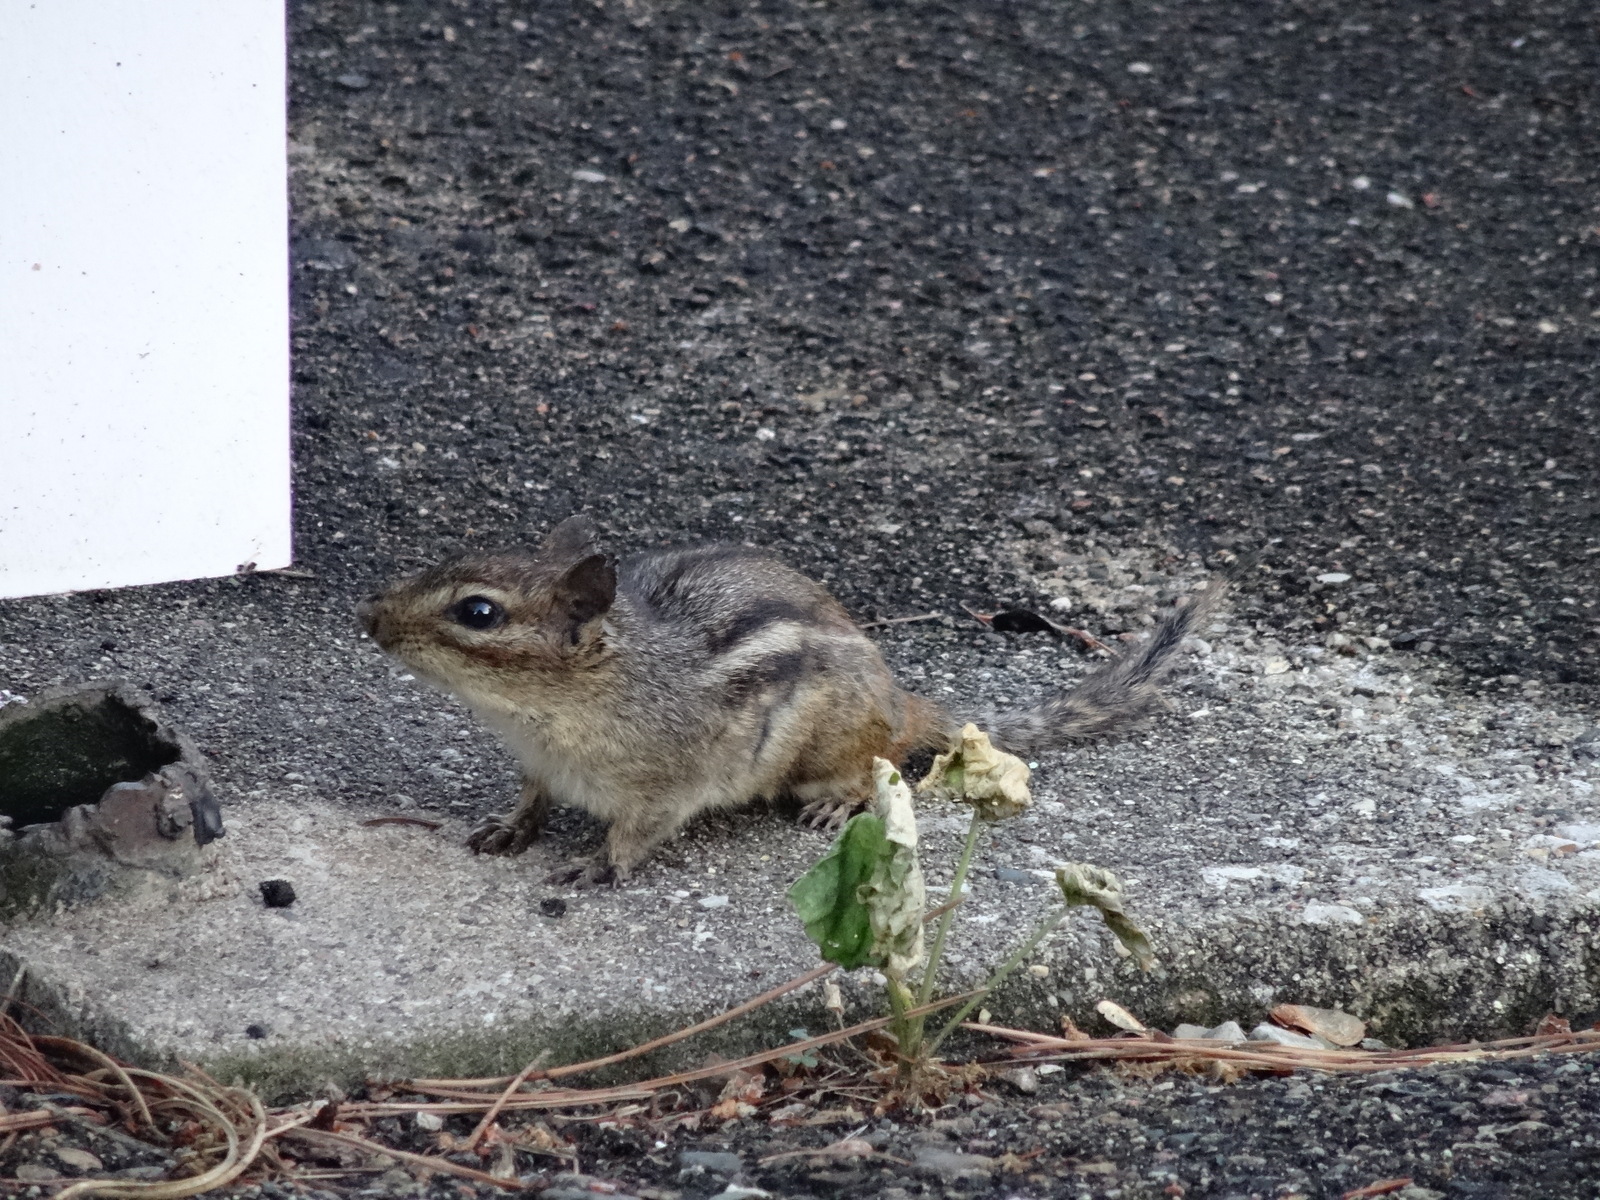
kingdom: Animalia
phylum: Chordata
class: Mammalia
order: Rodentia
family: Sciuridae
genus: Tamias
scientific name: Tamias striatus
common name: Eastern chipmunk
